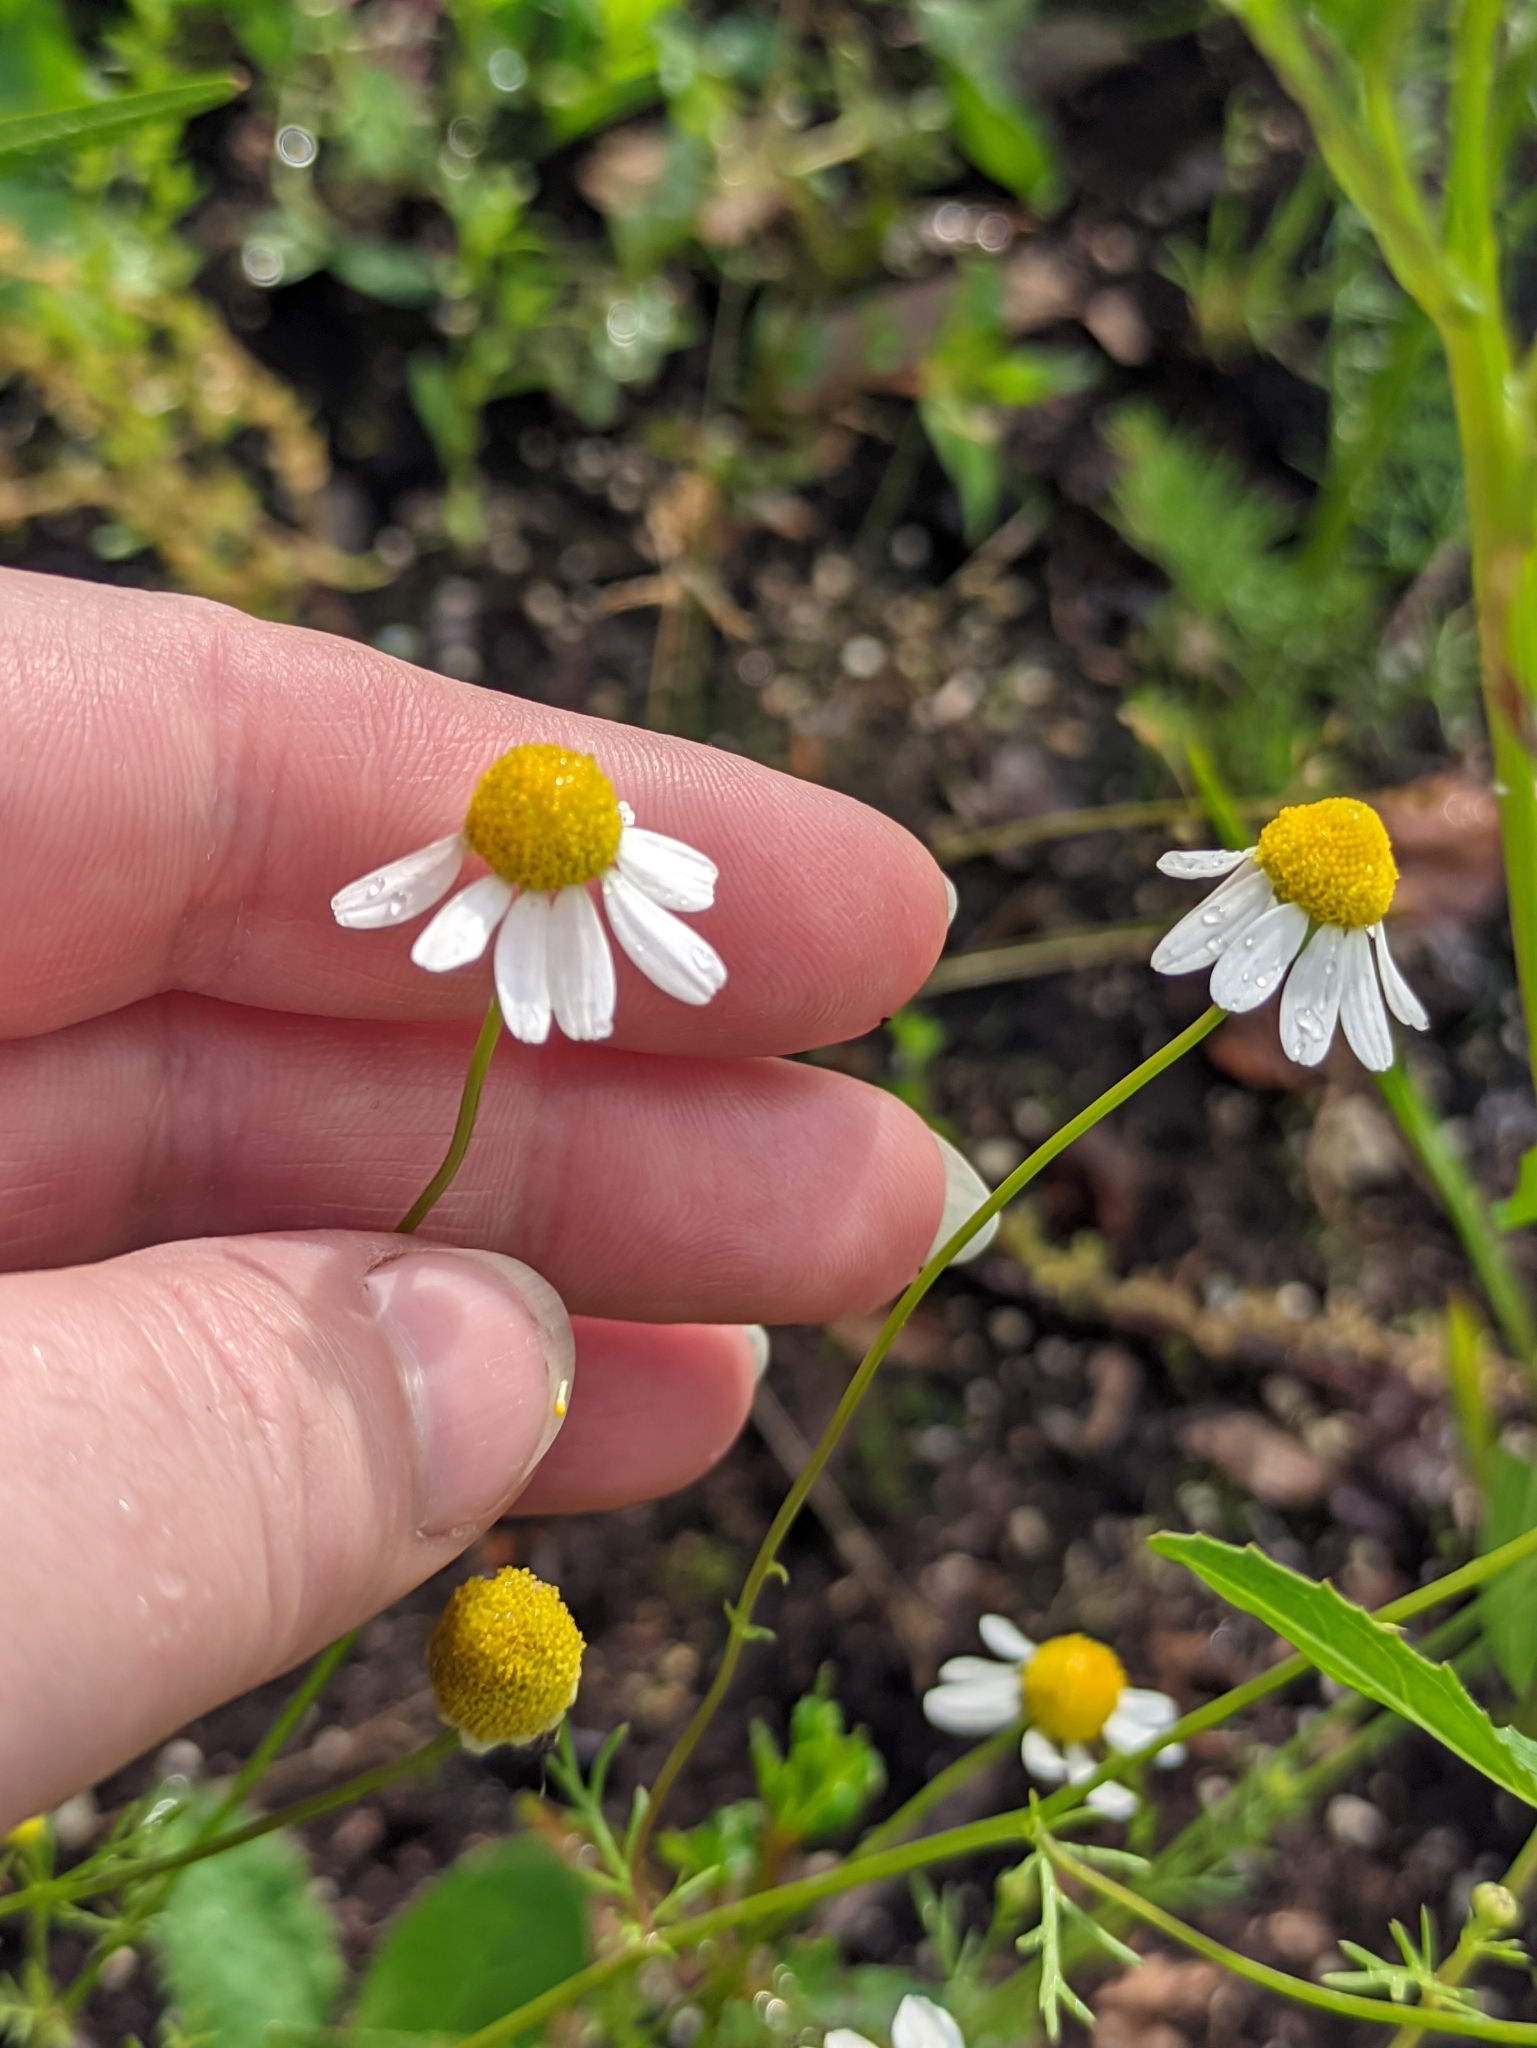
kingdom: Plantae
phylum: Tracheophyta
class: Magnoliopsida
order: Asterales
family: Asteraceae
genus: Matricaria
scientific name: Matricaria chamomilla
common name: Scented mayweed
